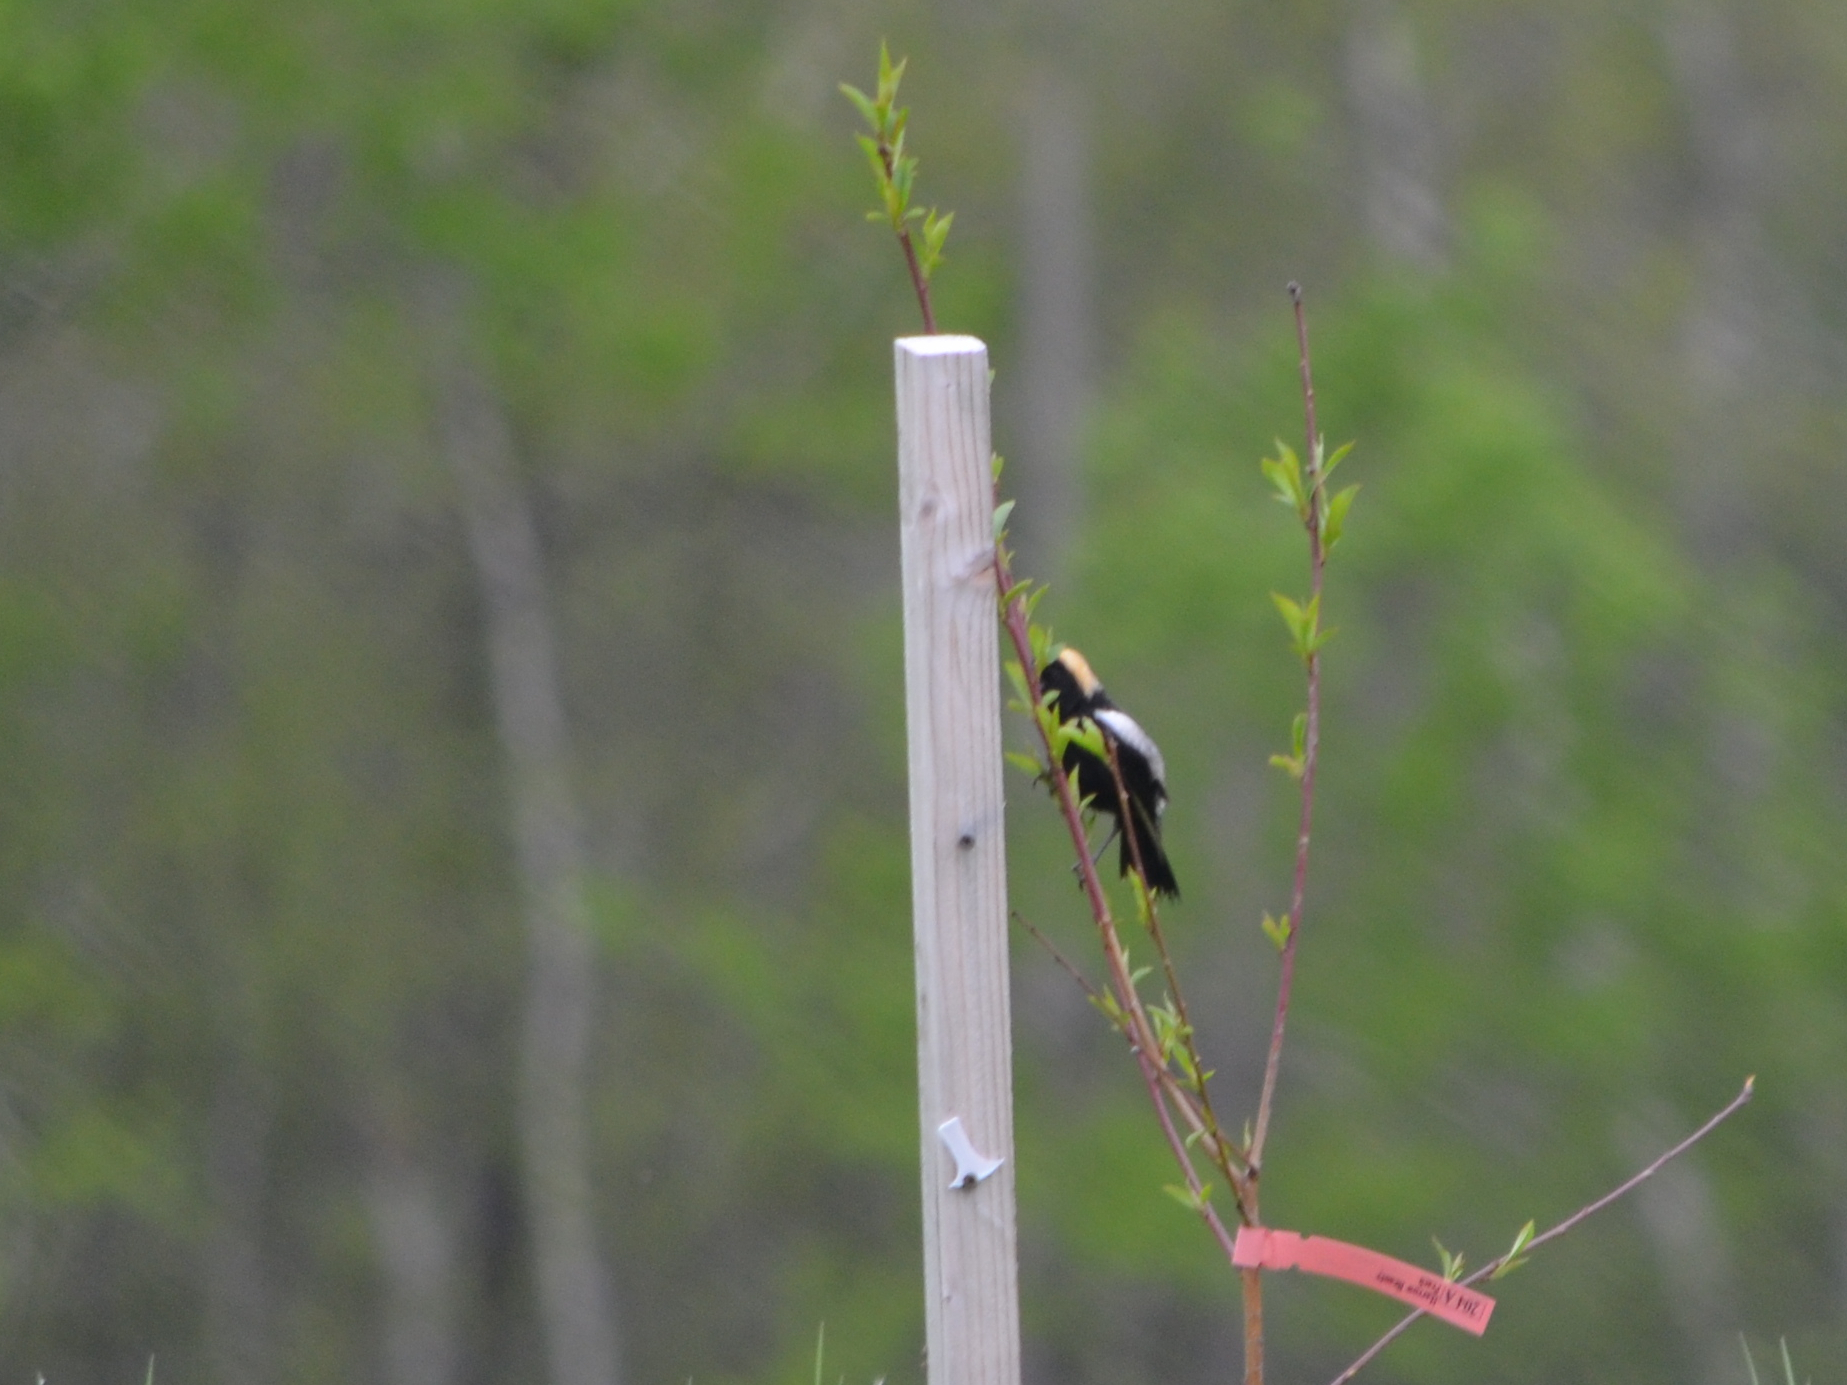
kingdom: Animalia
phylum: Chordata
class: Aves
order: Passeriformes
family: Icteridae
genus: Dolichonyx
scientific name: Dolichonyx oryzivorus
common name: Bobolink
